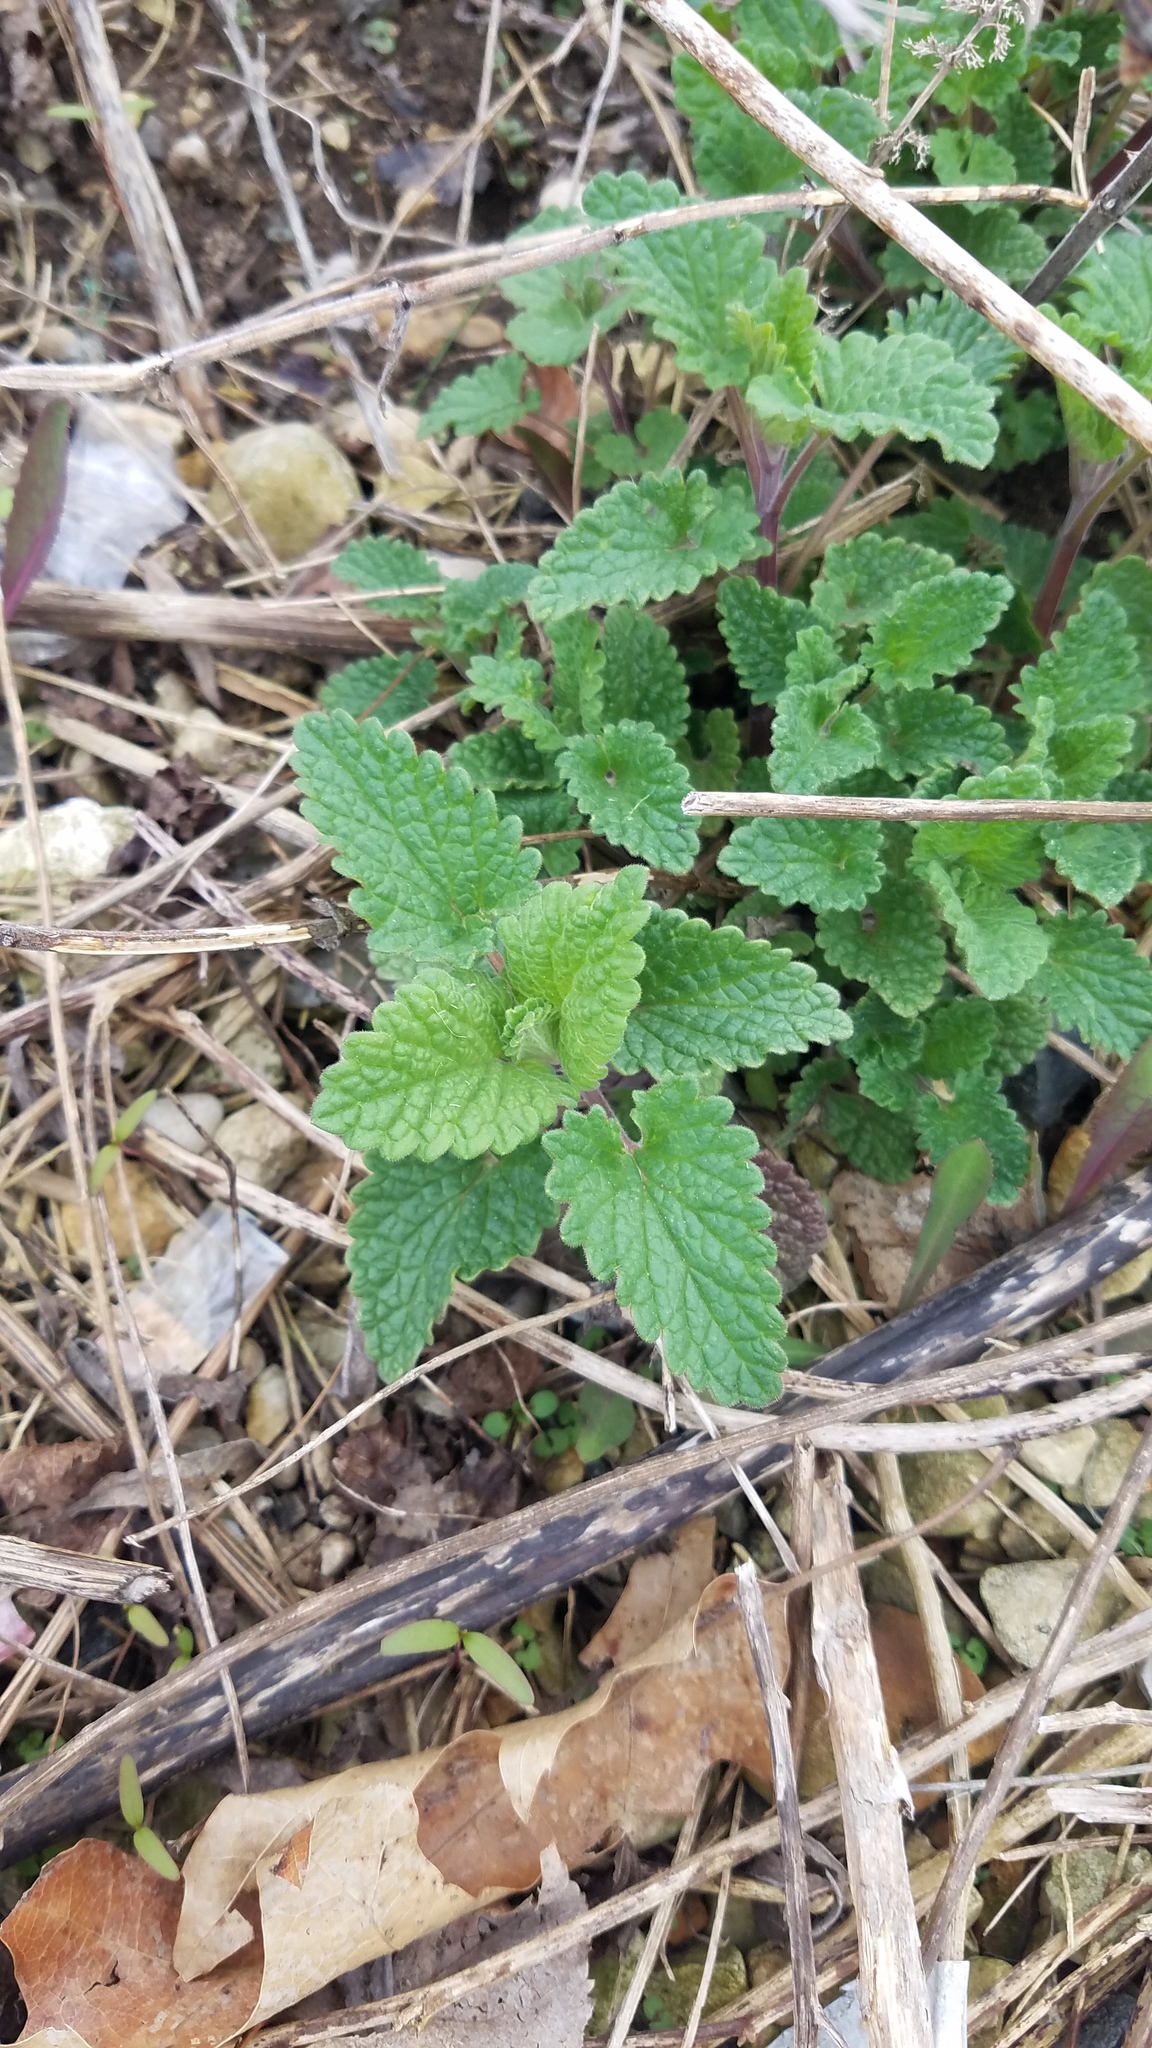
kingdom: Plantae
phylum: Tracheophyta
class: Magnoliopsida
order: Lamiales
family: Lamiaceae
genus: Nepeta
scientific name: Nepeta cataria
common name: Catnip
